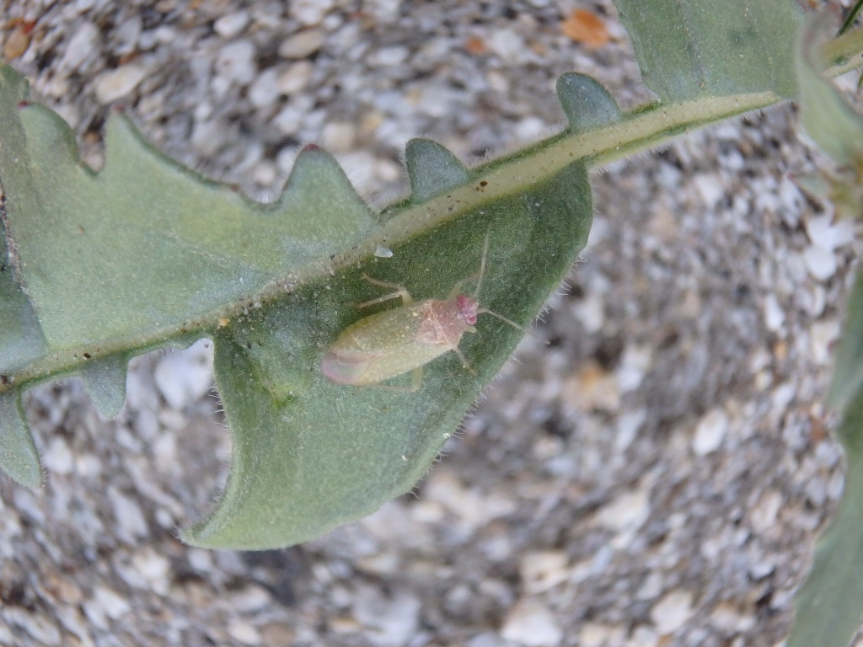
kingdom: Animalia
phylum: Arthropoda
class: Insecta
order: Hemiptera
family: Miridae
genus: Pseudopsallus
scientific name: Pseudopsallus puberus
